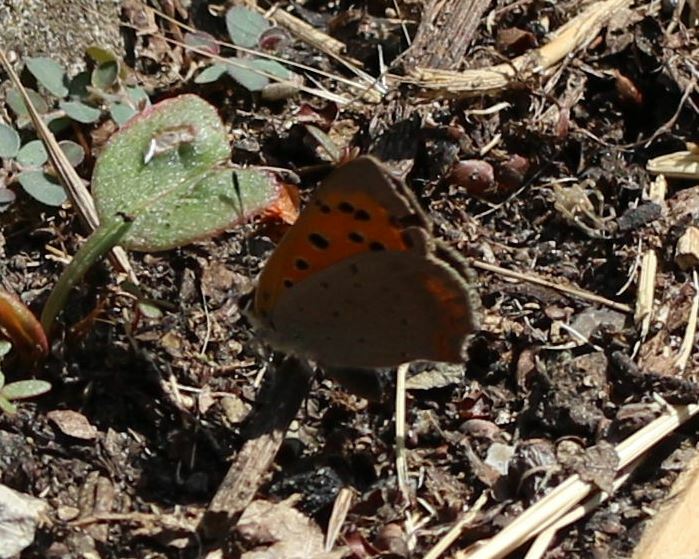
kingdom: Animalia
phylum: Arthropoda
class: Insecta
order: Lepidoptera
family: Lycaenidae
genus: Lycaena
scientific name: Lycaena phlaeas
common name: Small copper
